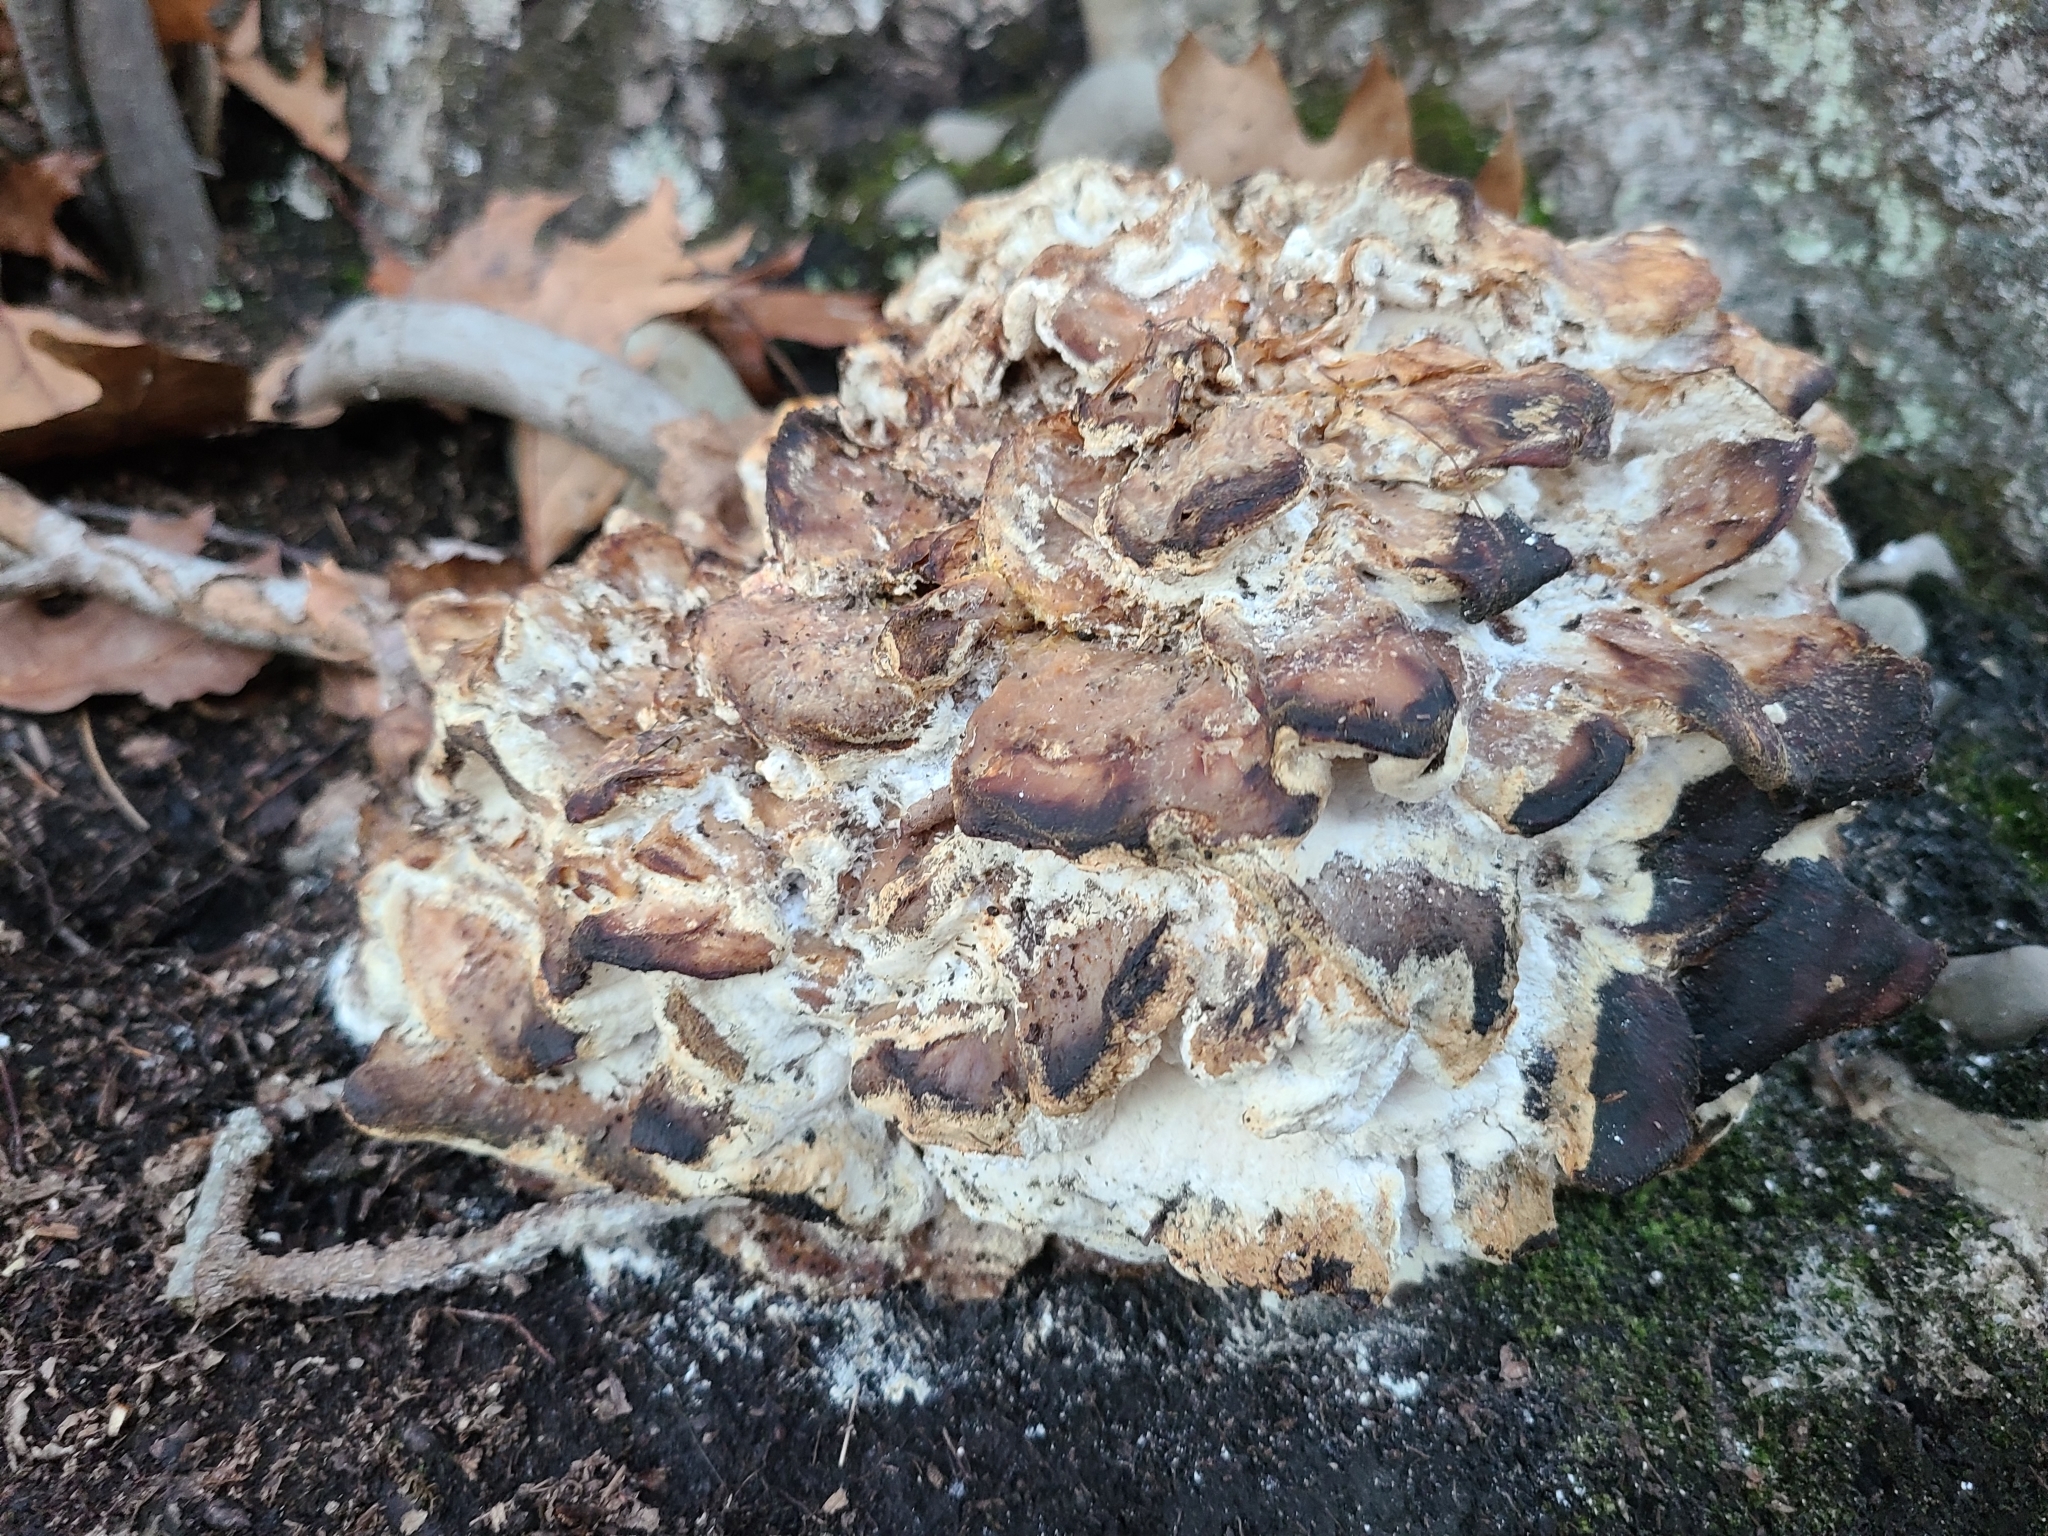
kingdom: Fungi
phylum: Basidiomycota
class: Agaricomycetes
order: Polyporales
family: Grifolaceae
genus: Grifola
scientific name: Grifola frondosa
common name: Hen of the woods
